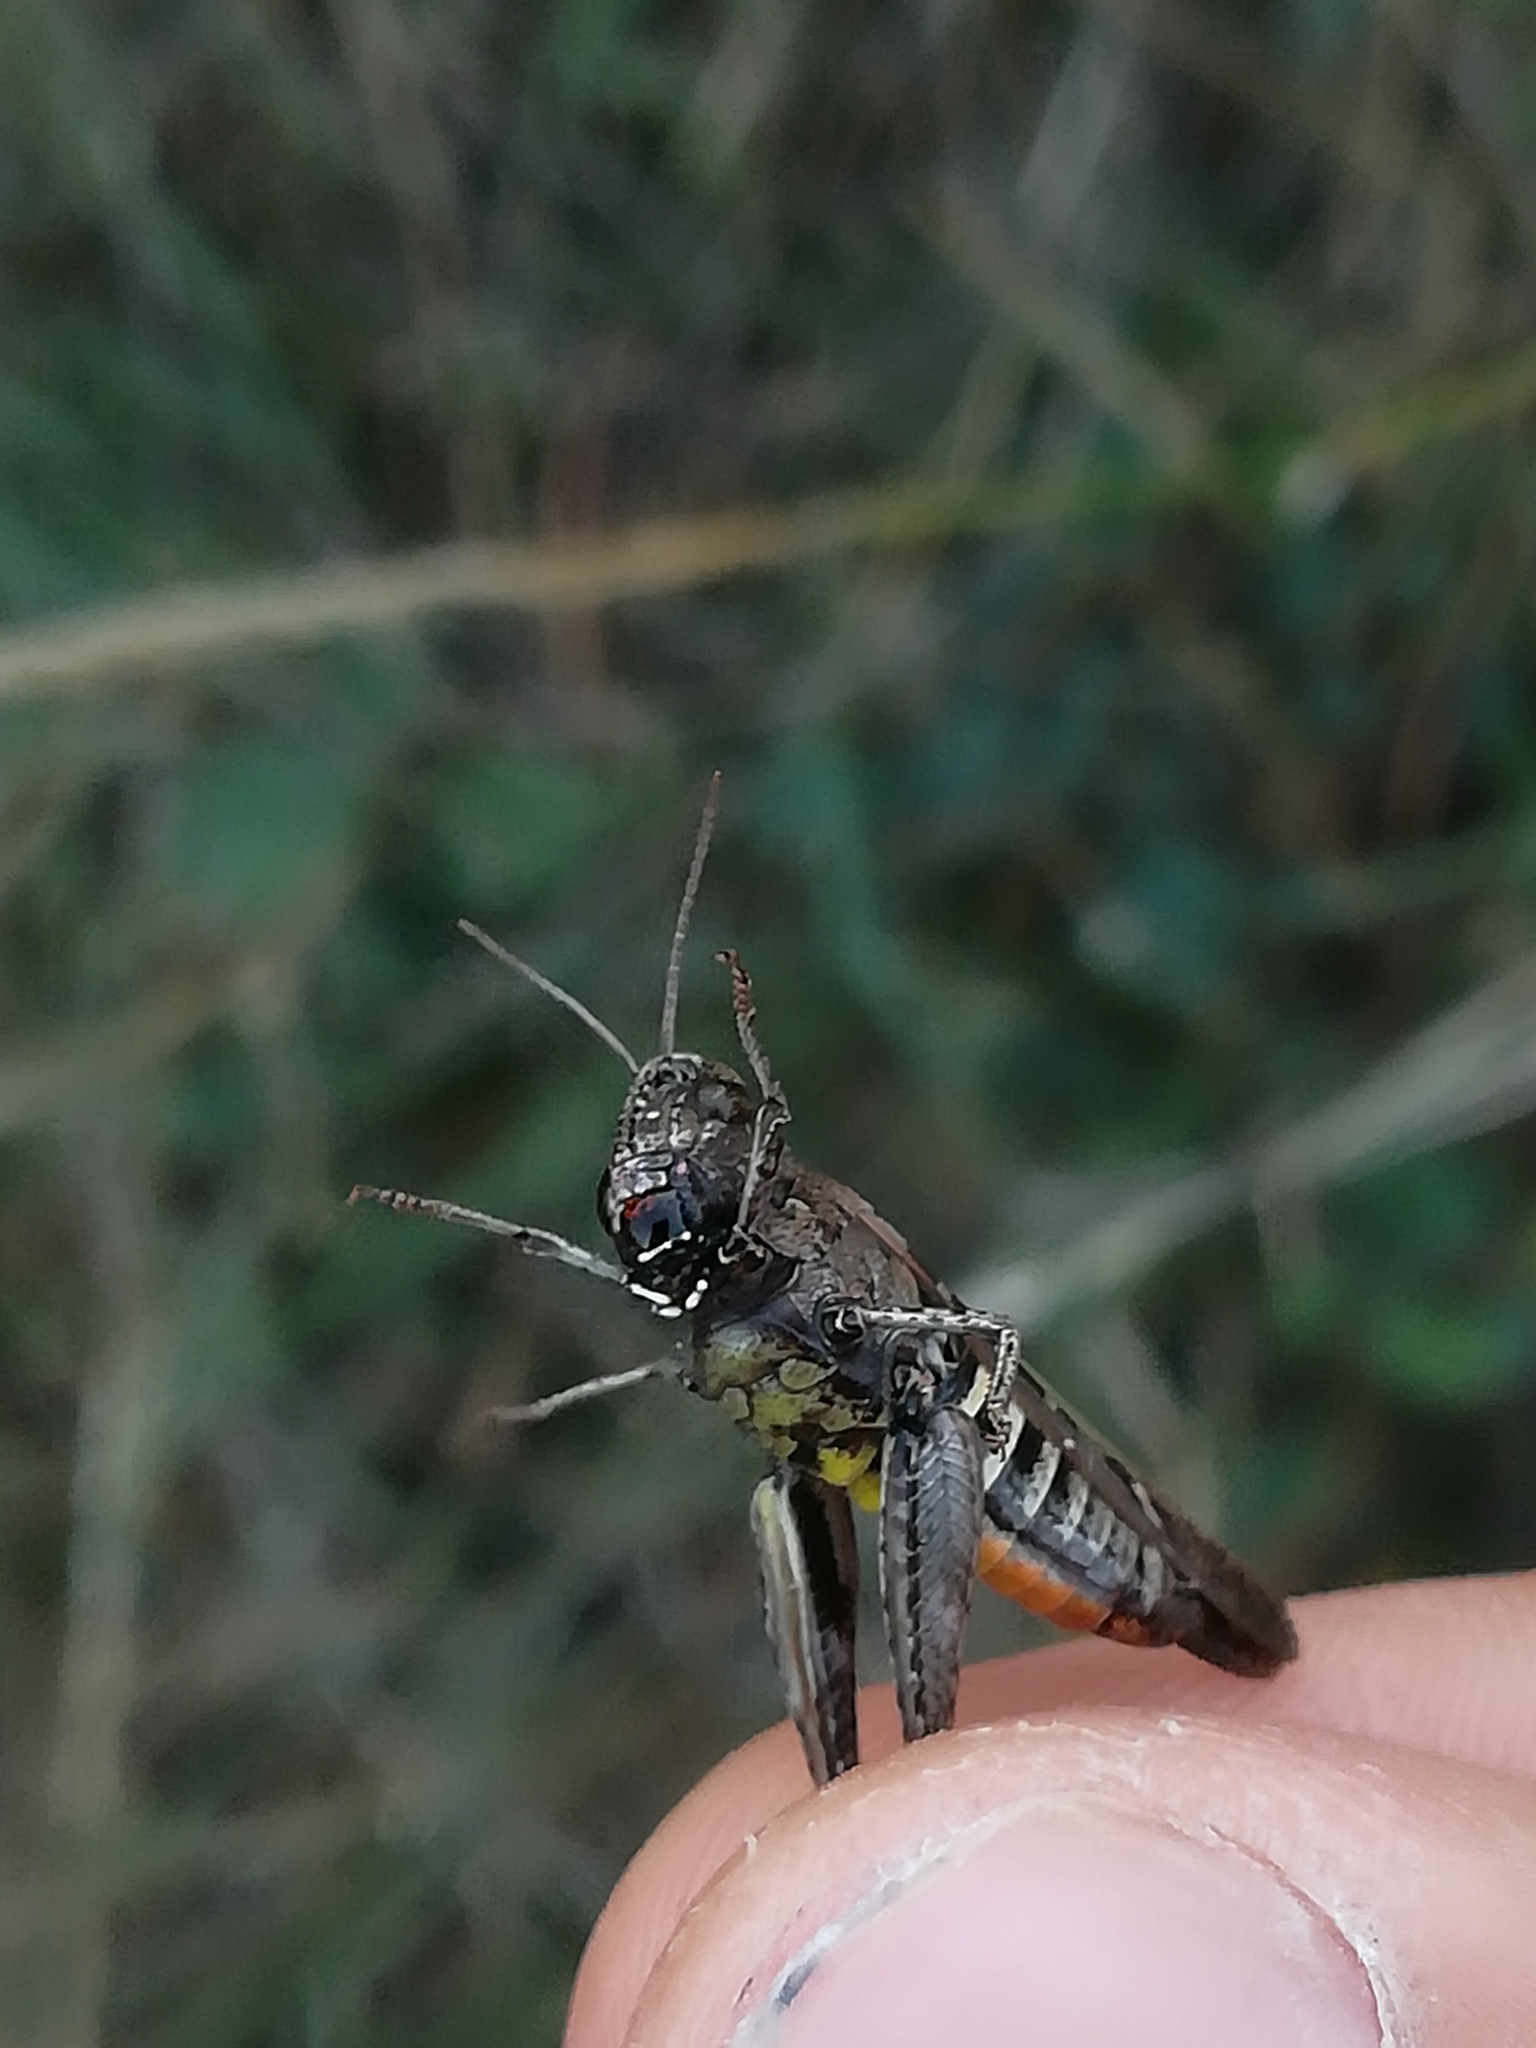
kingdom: Animalia
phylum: Arthropoda
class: Insecta
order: Orthoptera
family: Acrididae
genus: Omocestus
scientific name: Omocestus rufipes
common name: Woodland grasshopper
